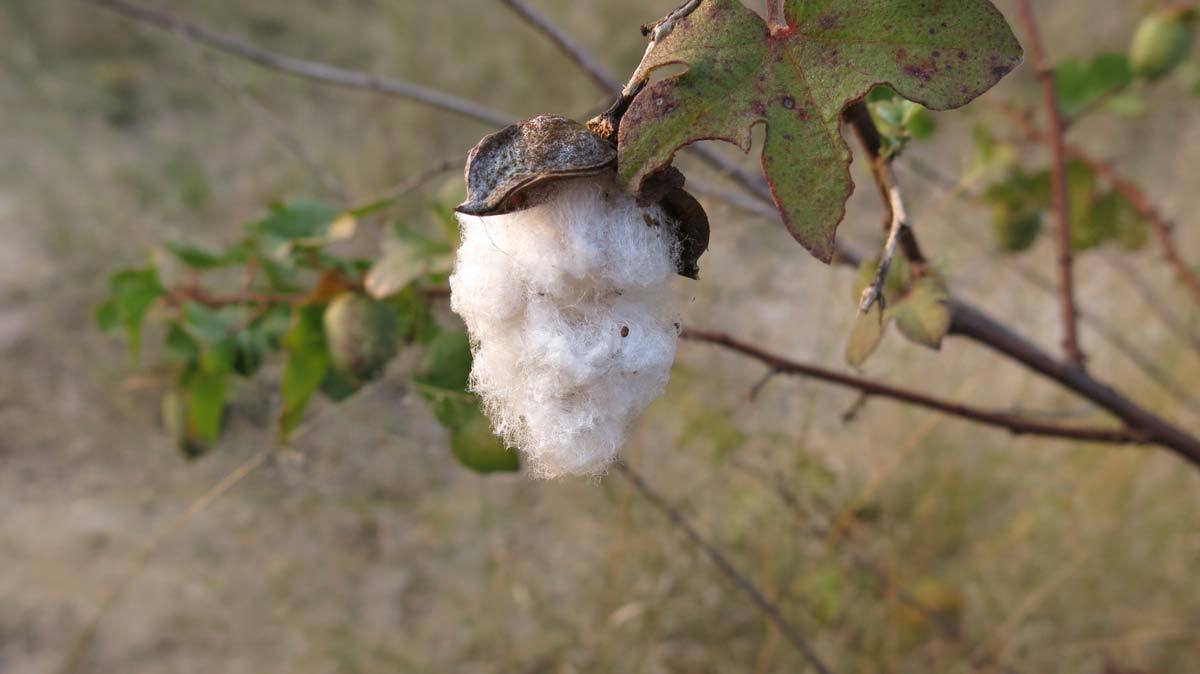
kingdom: Plantae
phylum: Tracheophyta
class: Magnoliopsida
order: Malvales
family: Malvaceae
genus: Gossypium
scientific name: Gossypium herbaceum
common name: Levant cotton
